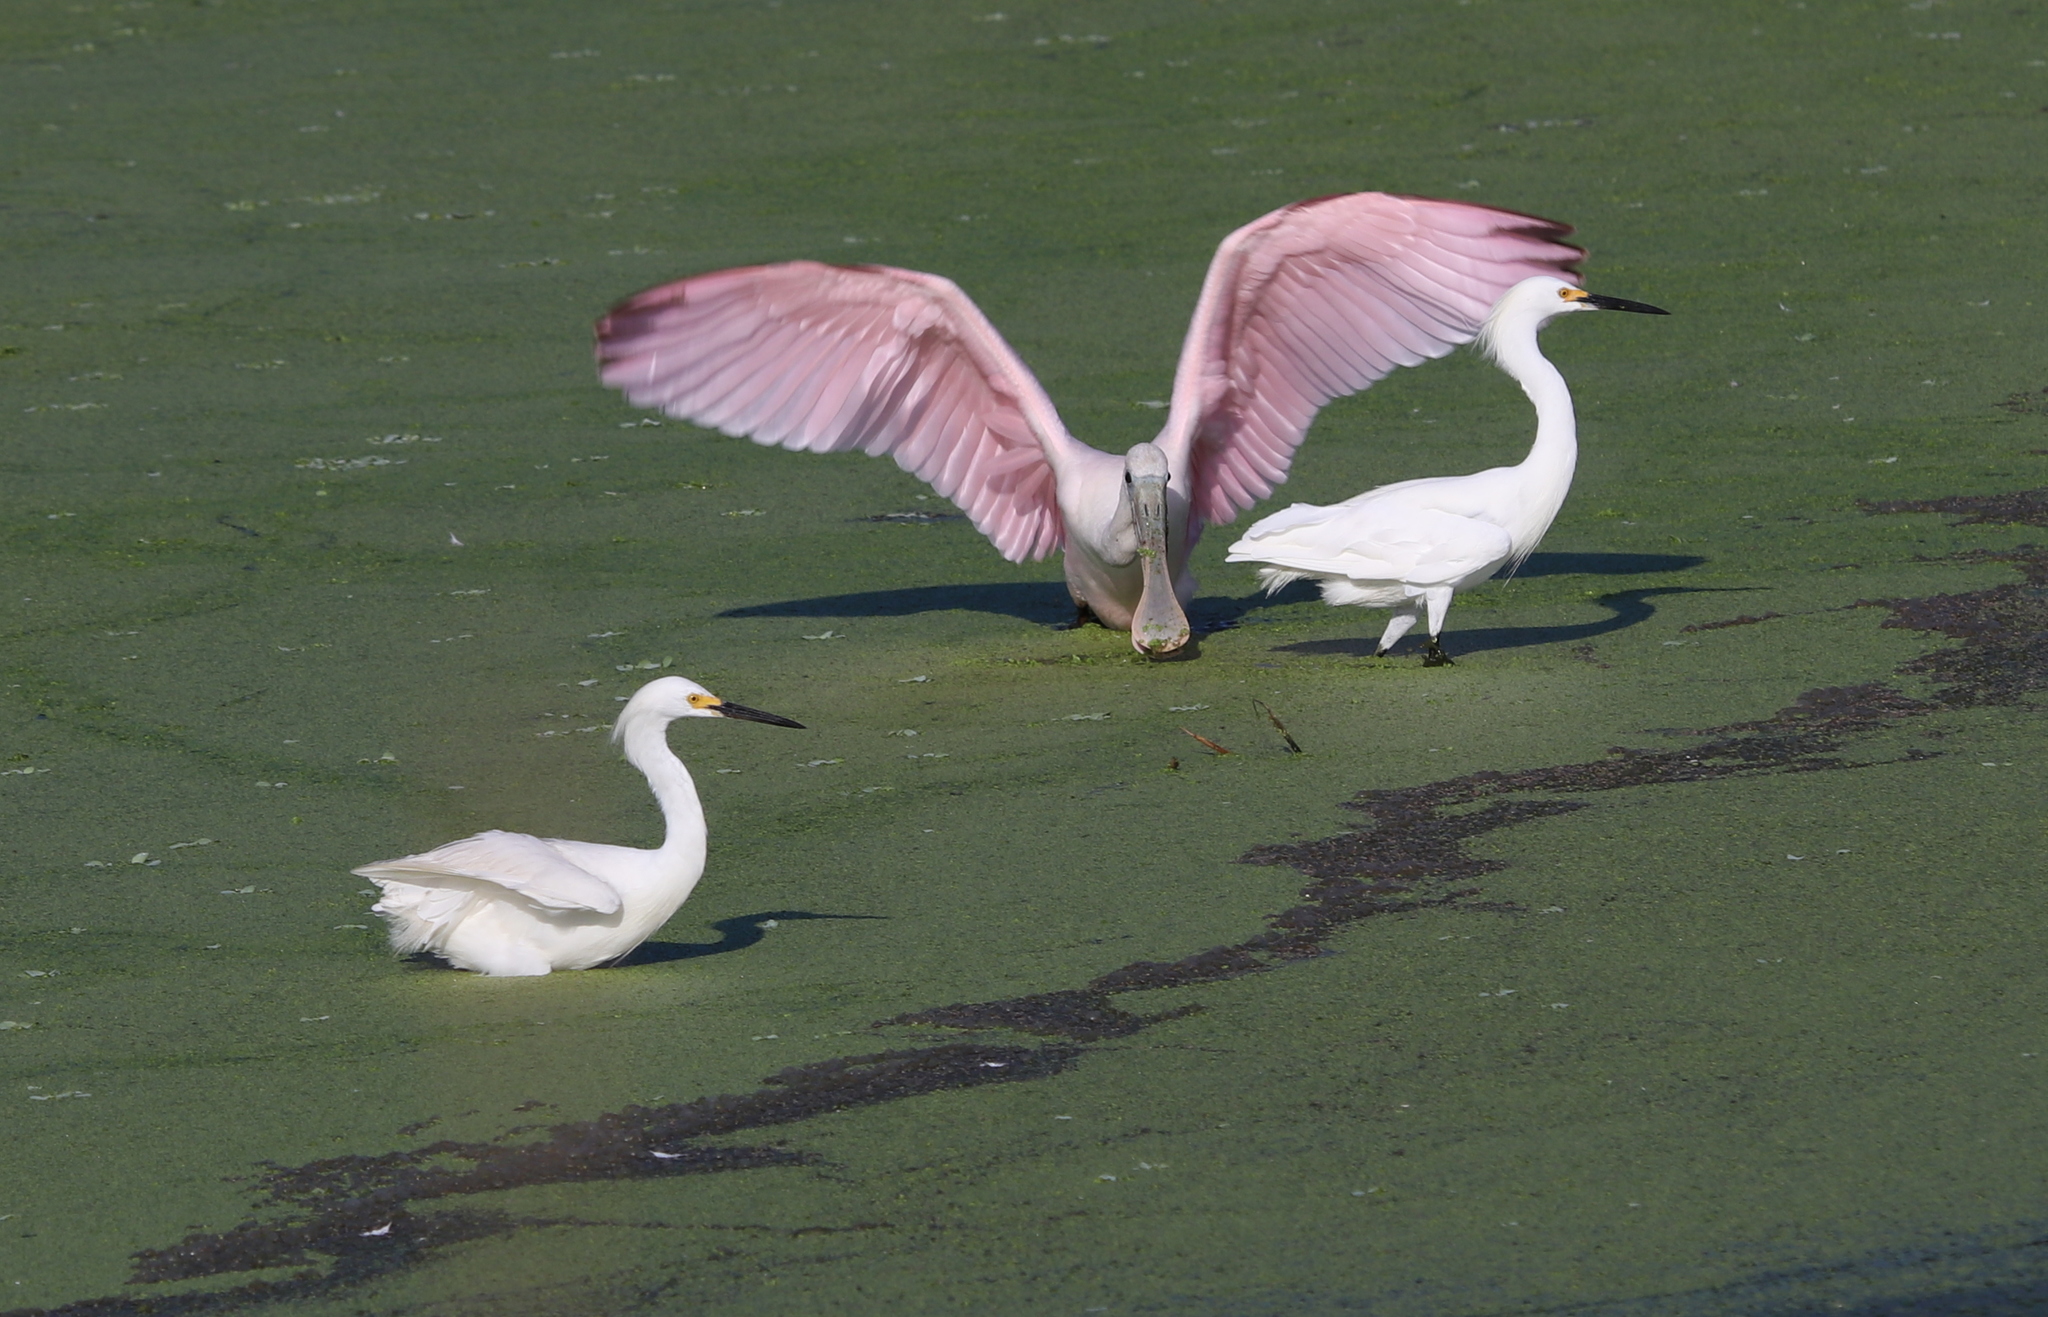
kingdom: Animalia
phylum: Chordata
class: Aves
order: Pelecaniformes
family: Ardeidae
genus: Egretta
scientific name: Egretta thula
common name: Snowy egret
